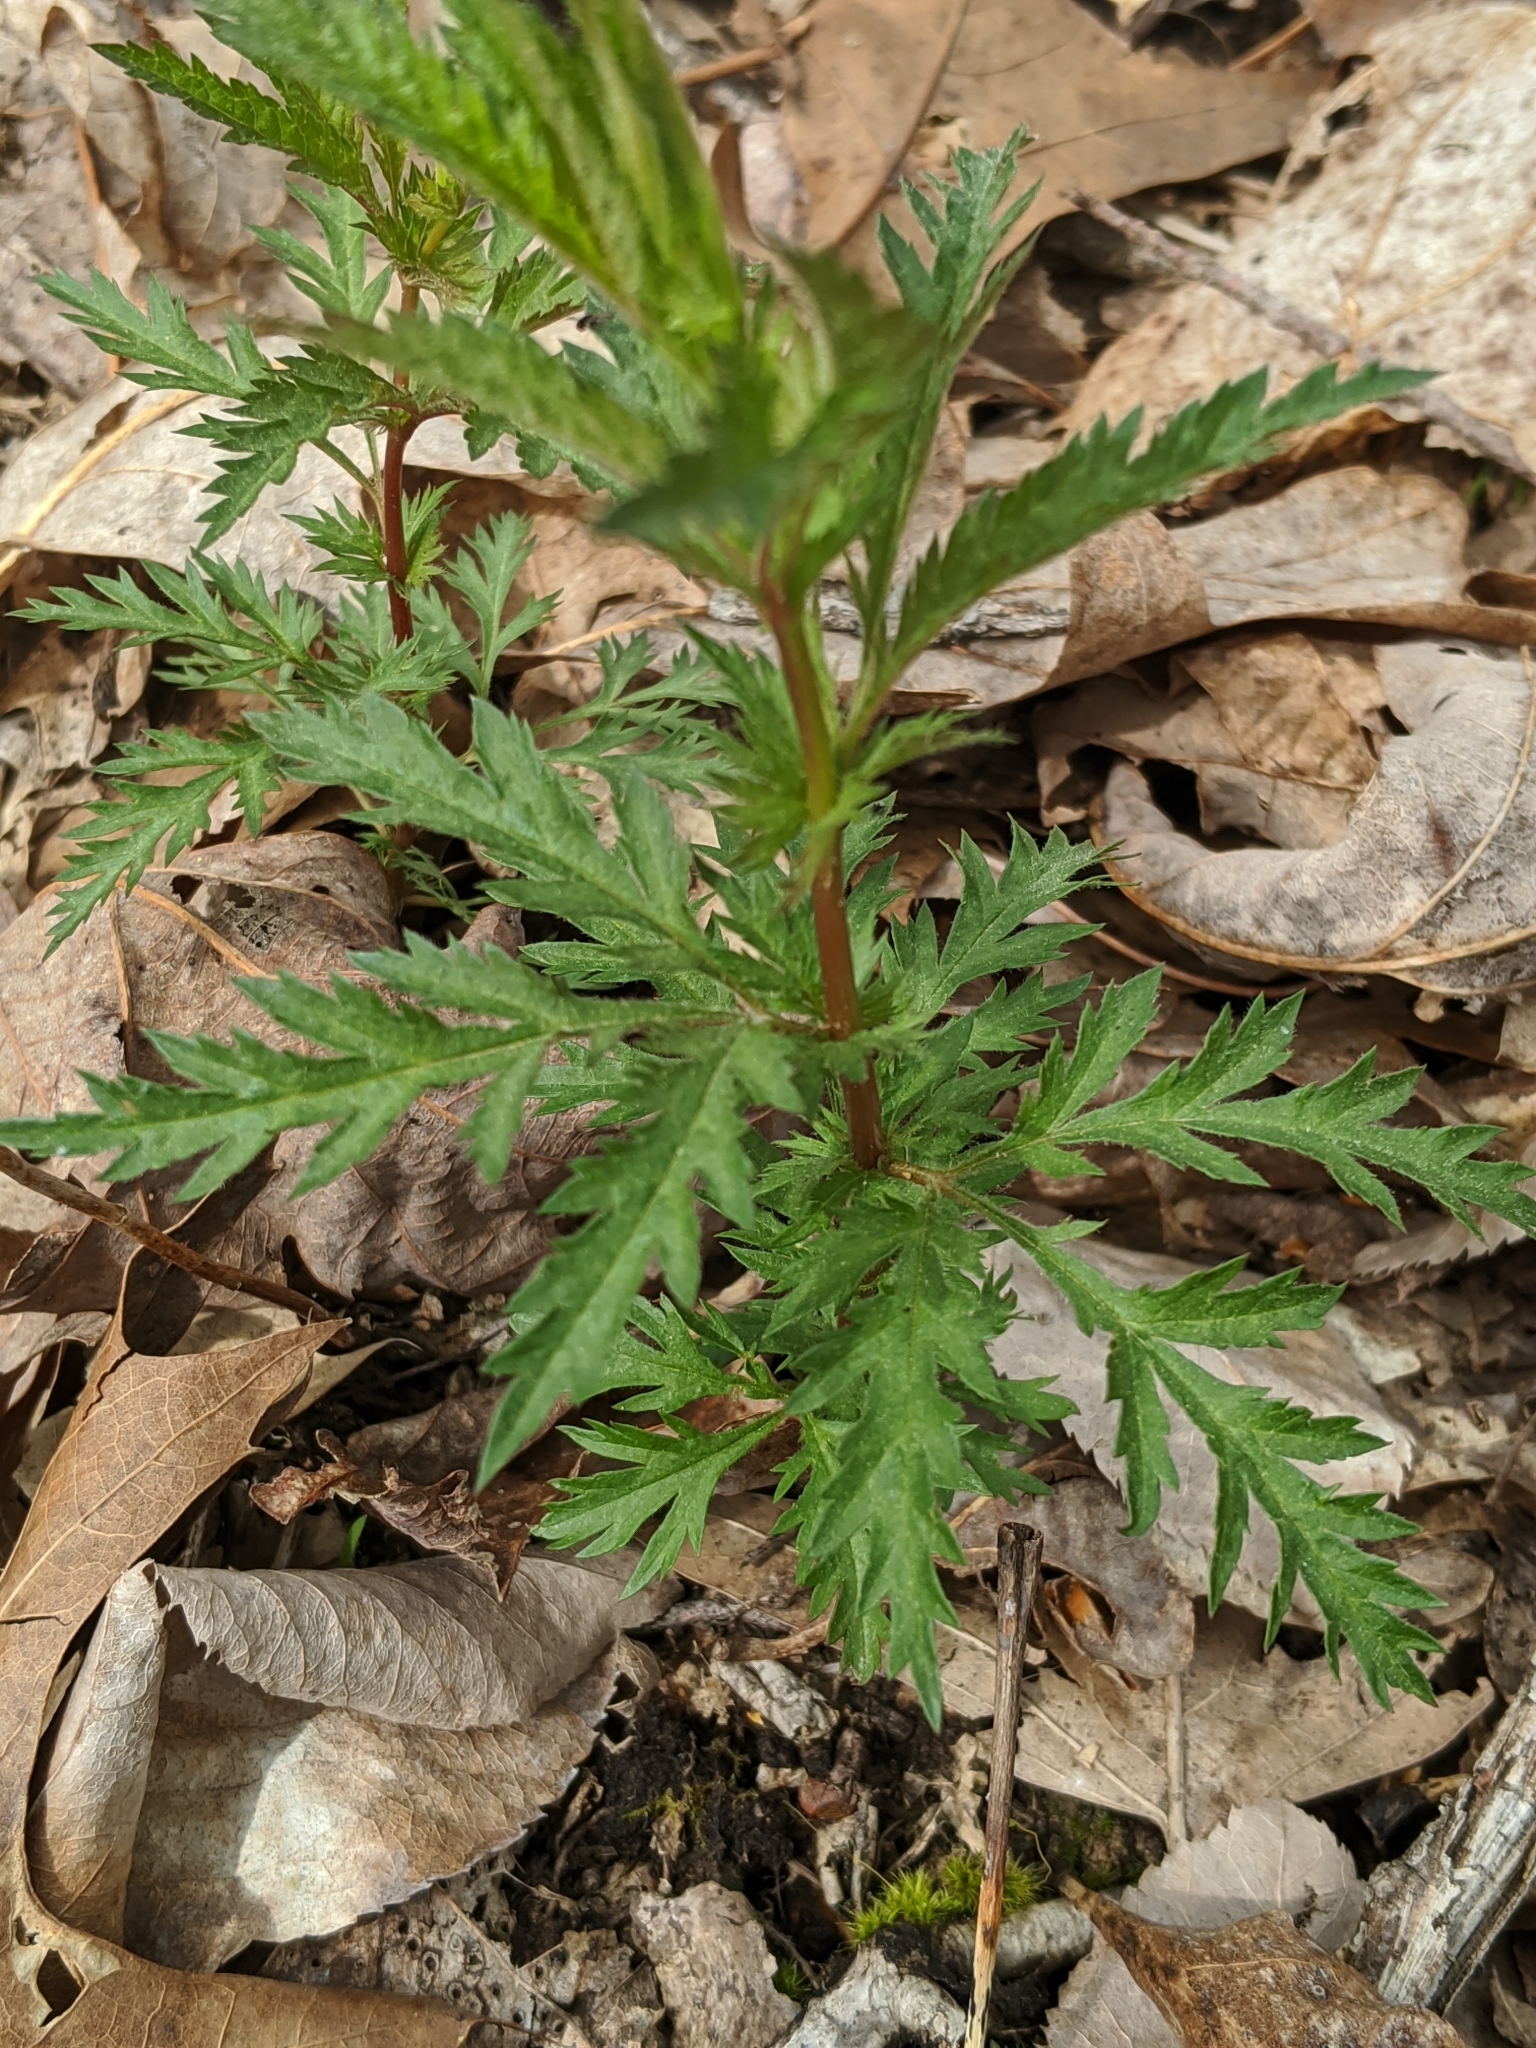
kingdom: Plantae
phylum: Tracheophyta
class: Magnoliopsida
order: Rosales
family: Rosaceae
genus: Gillenia
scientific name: Gillenia stipulata
